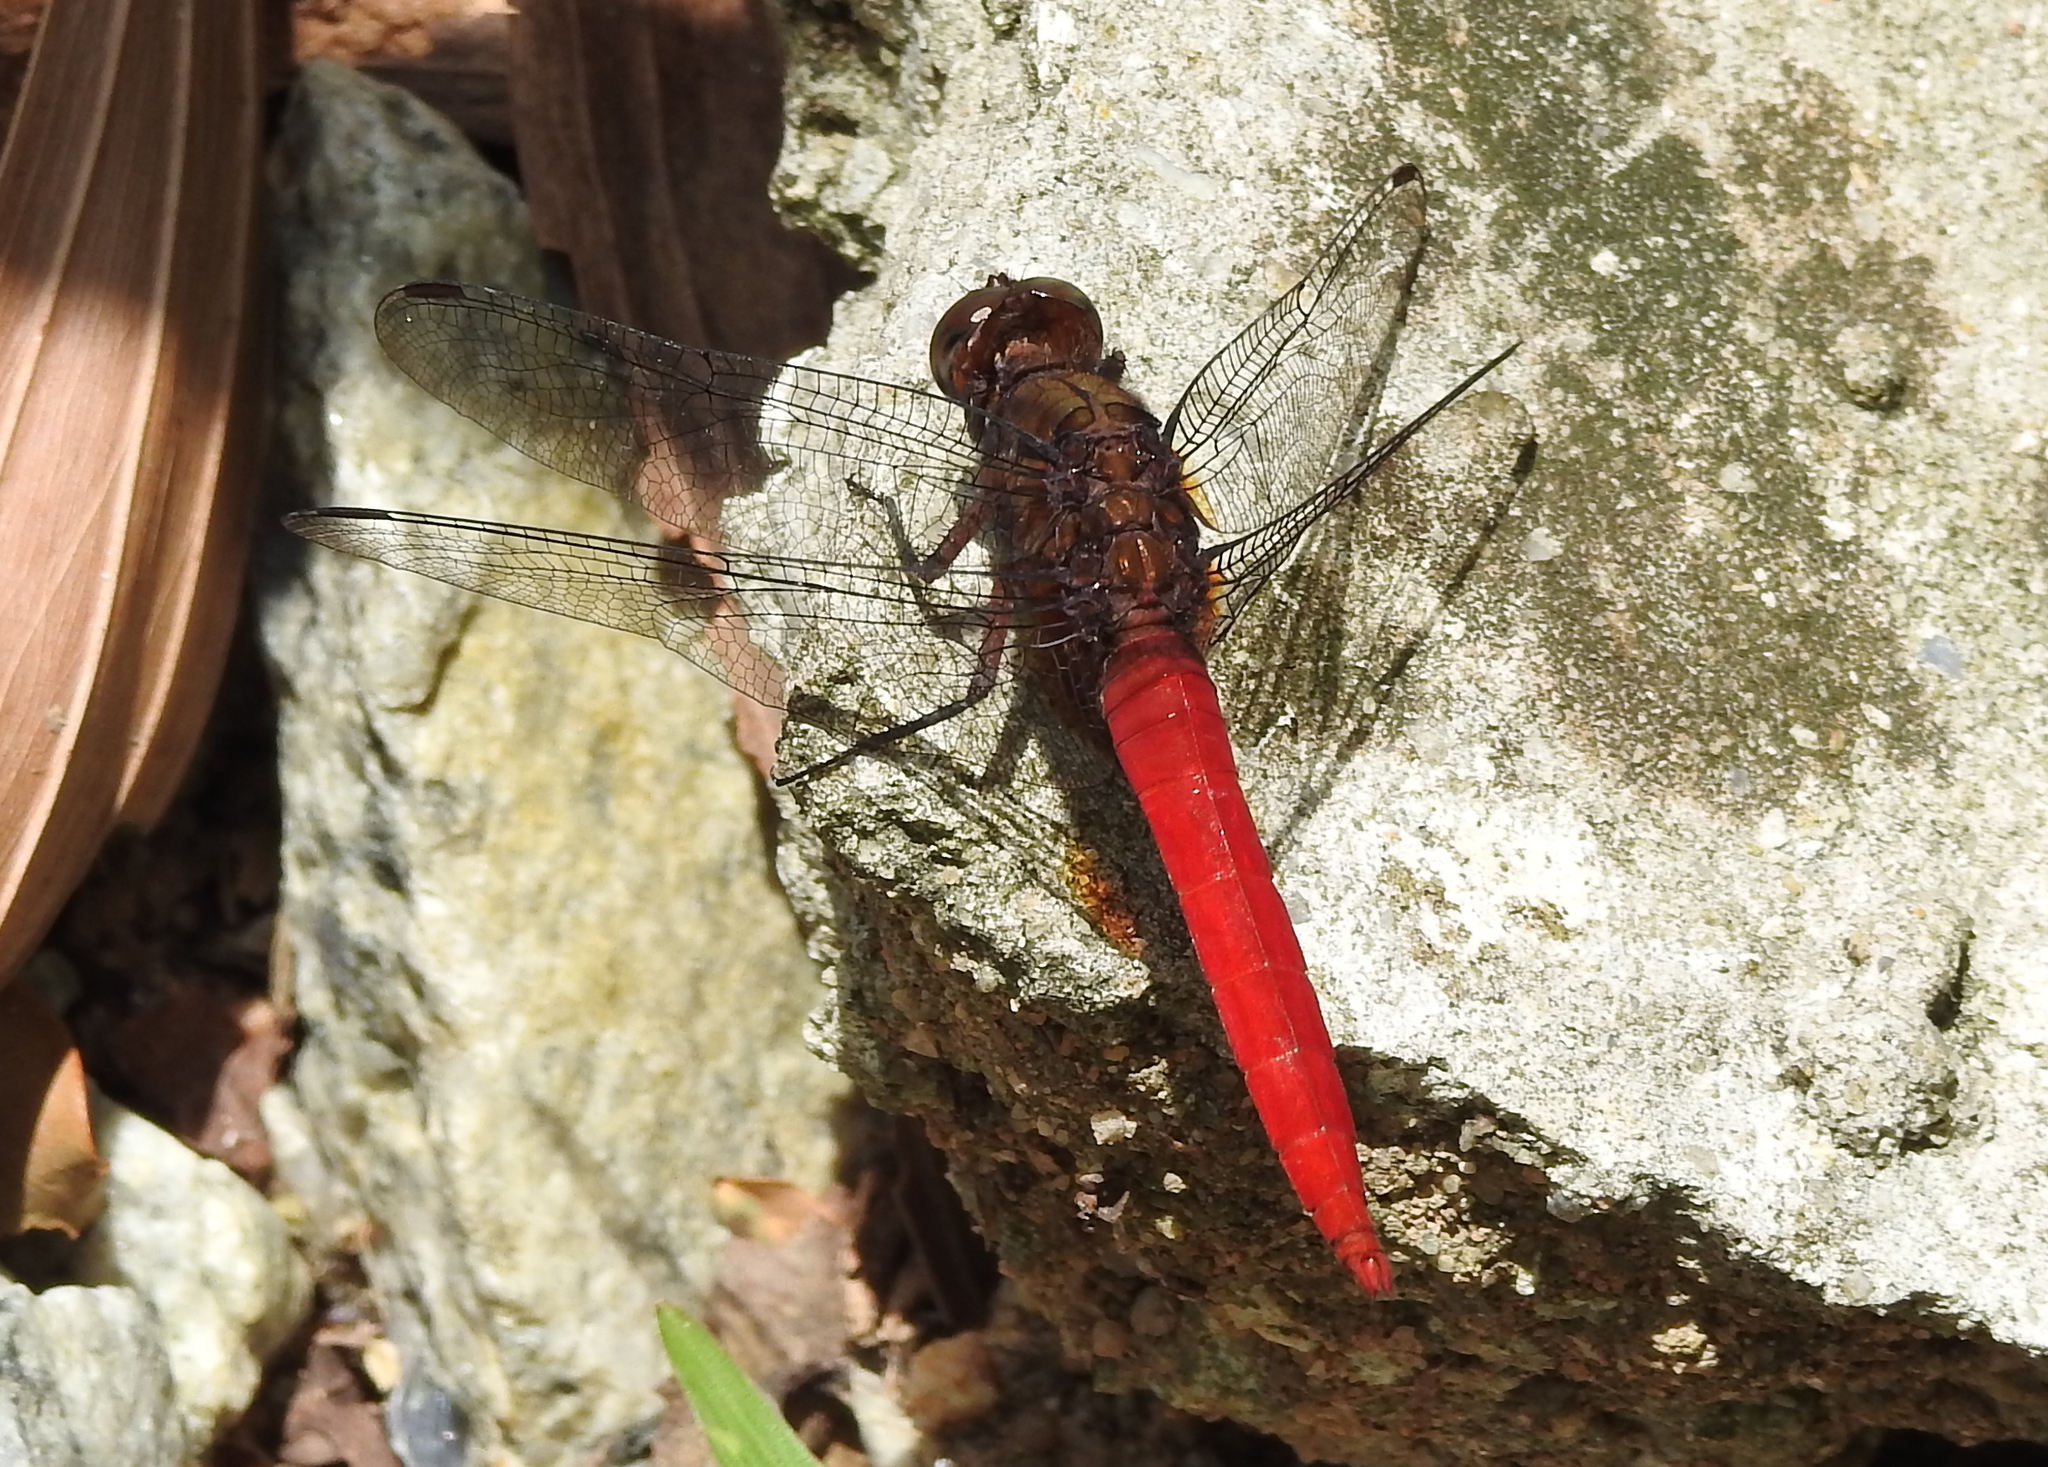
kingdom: Animalia
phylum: Arthropoda
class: Insecta
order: Odonata
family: Libellulidae
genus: Orthetrum
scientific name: Orthetrum chrysis
